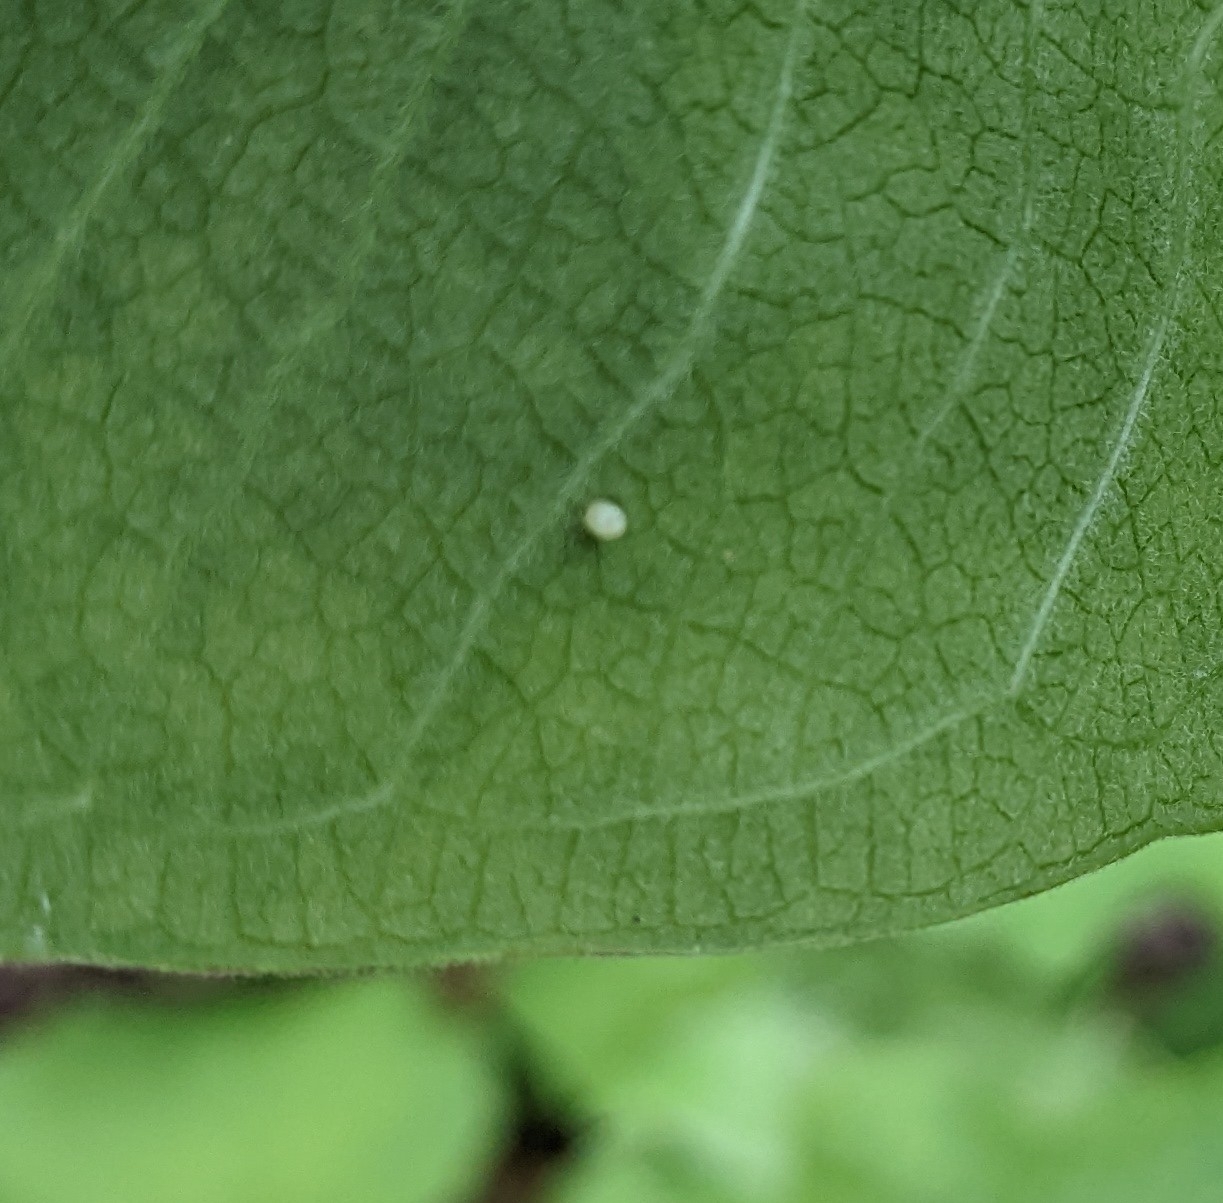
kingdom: Animalia
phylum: Arthropoda
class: Insecta
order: Lepidoptera
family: Nymphalidae
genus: Danaus
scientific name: Danaus plexippus
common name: Monarch
